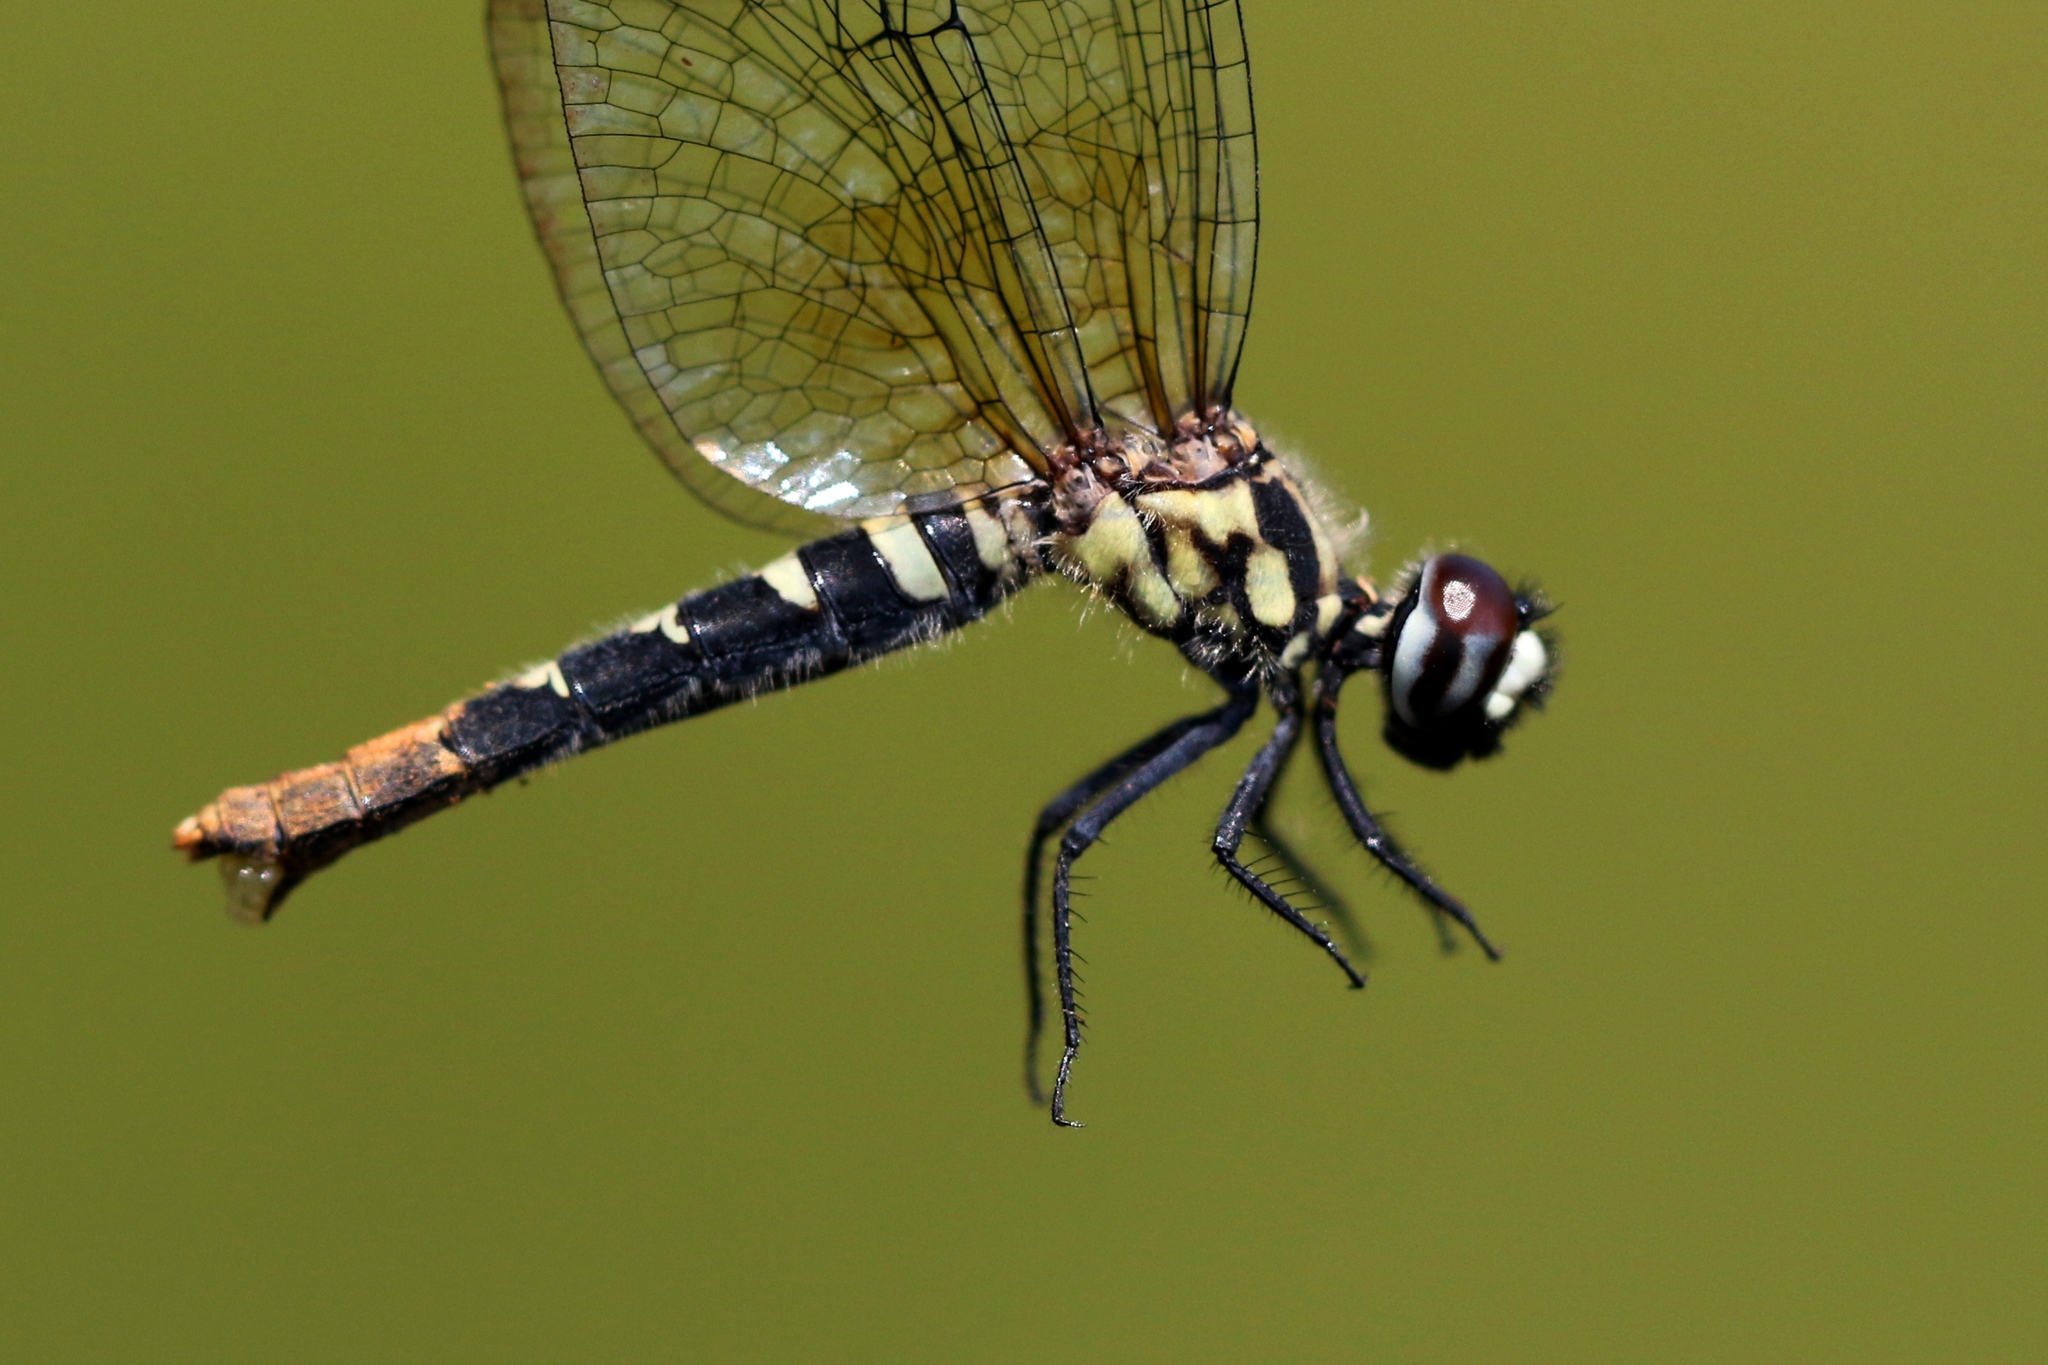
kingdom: Animalia
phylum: Arthropoda
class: Insecta
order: Odonata
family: Libellulidae
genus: Nannothemis
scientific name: Nannothemis bella
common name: Elfin skimmer
